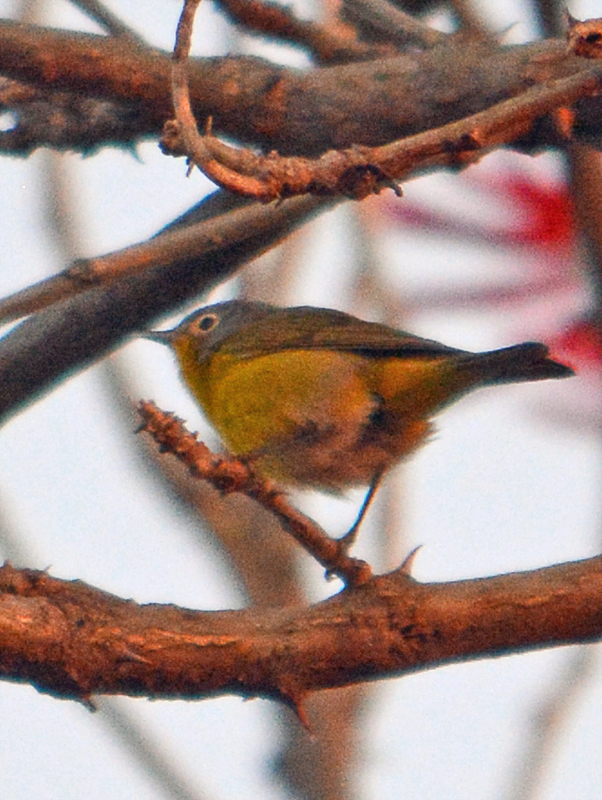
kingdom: Animalia
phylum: Chordata
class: Aves
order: Passeriformes
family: Parulidae
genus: Leiothlypis
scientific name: Leiothlypis ruficapilla
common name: Nashville warbler
